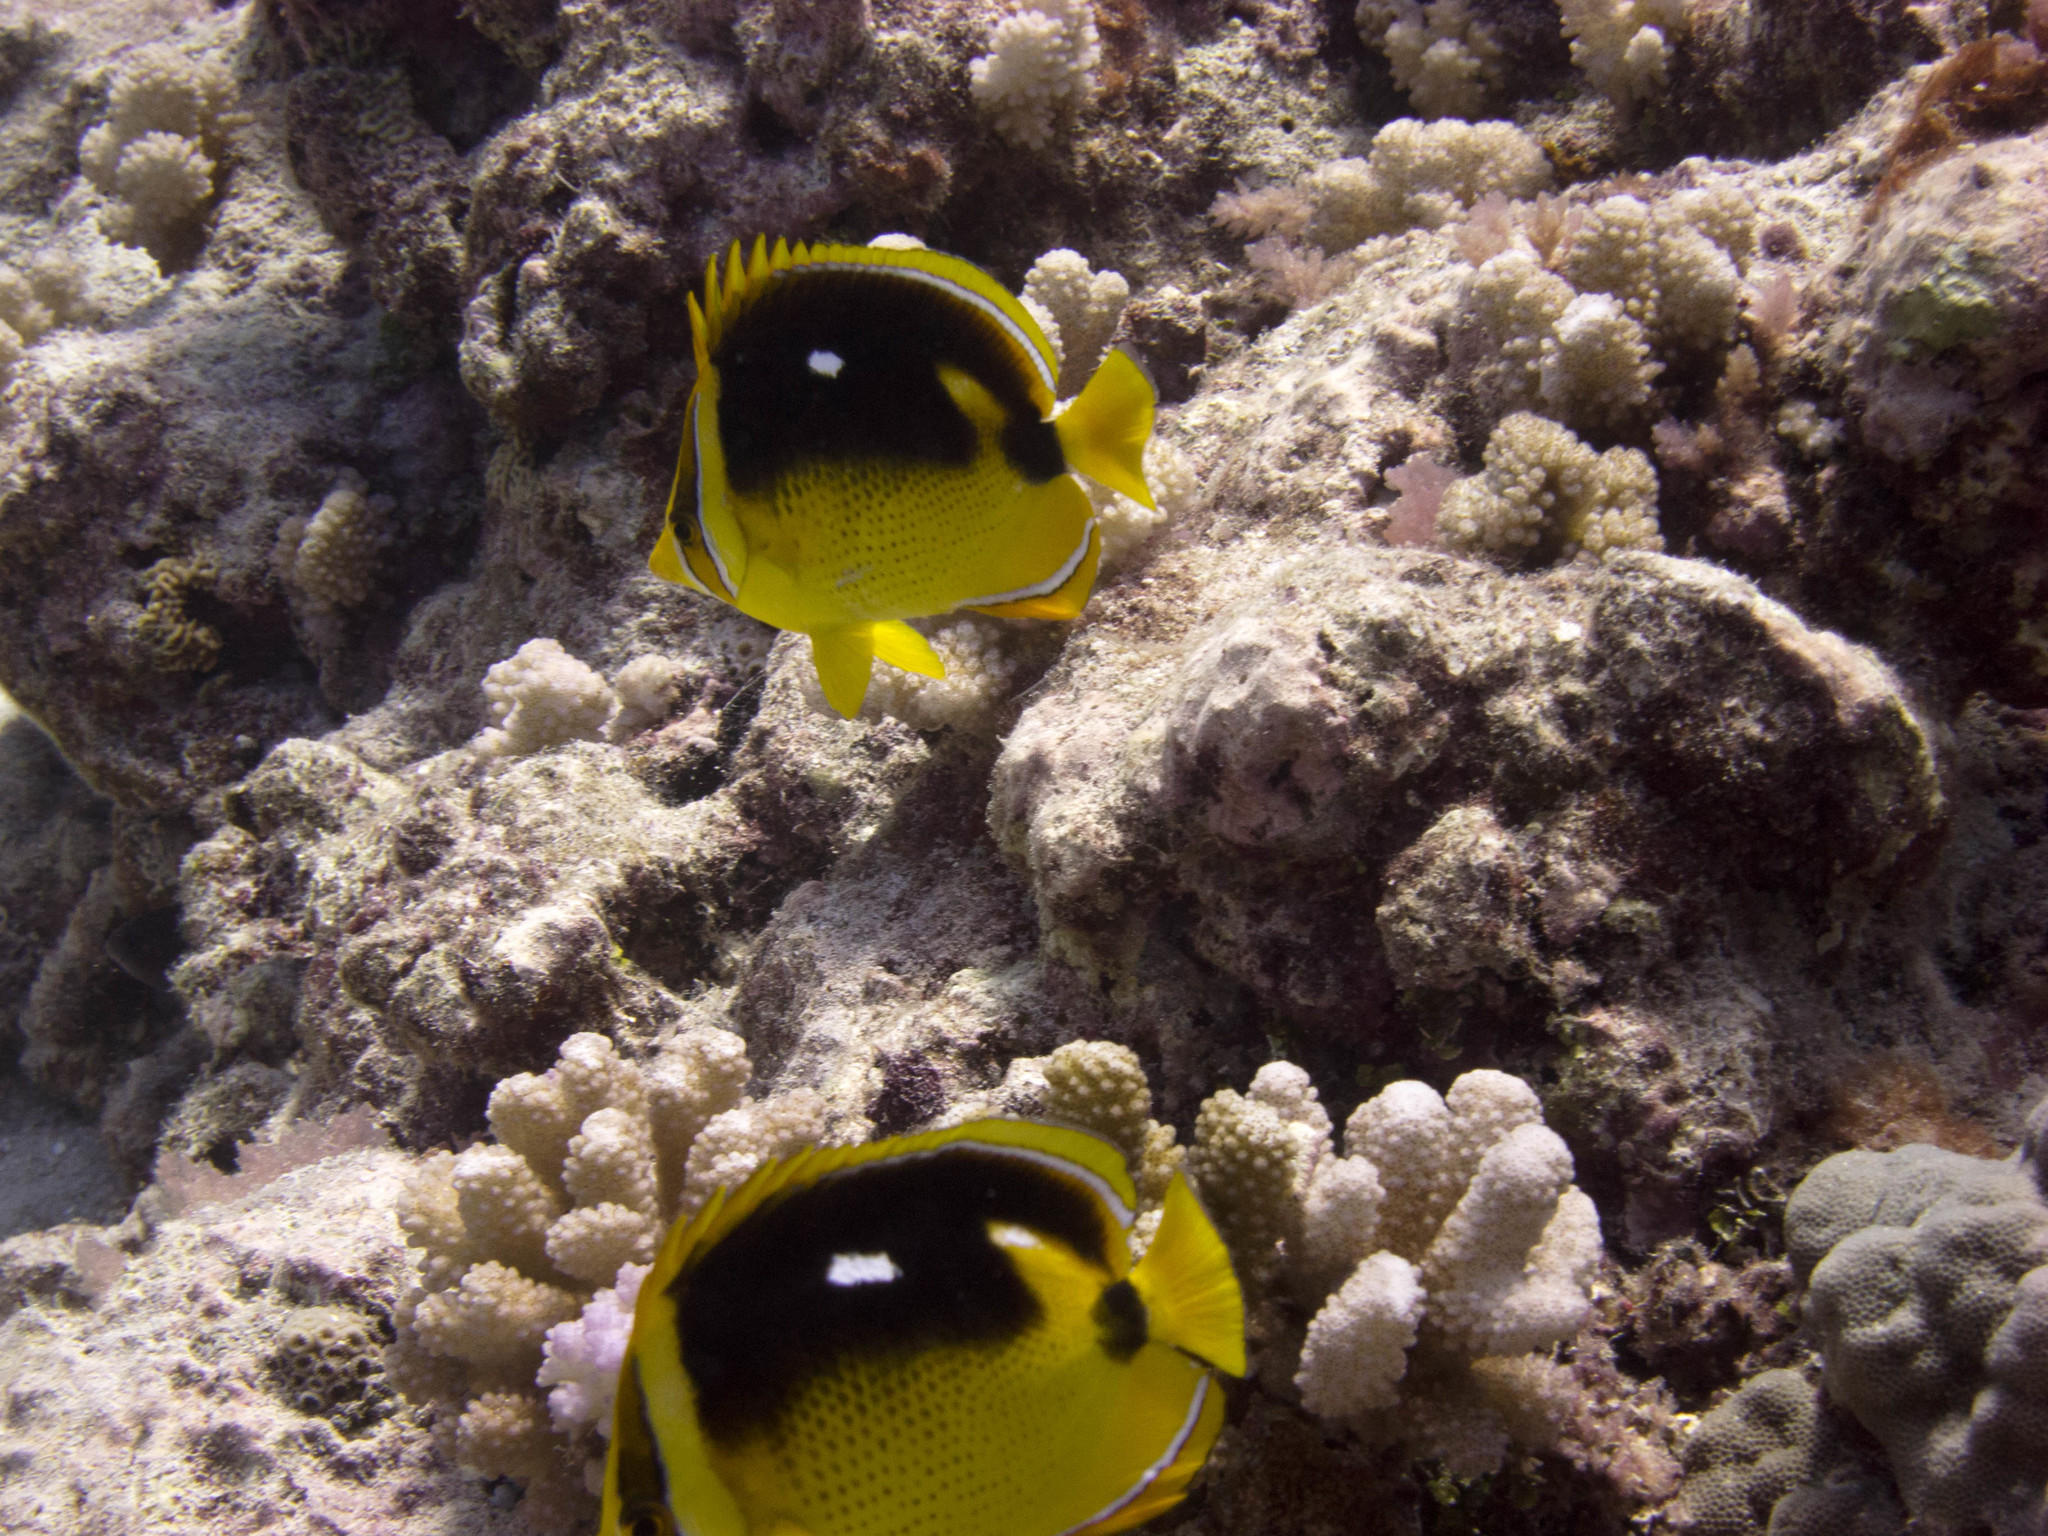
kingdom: Animalia
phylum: Chordata
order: Perciformes
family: Chaetodontidae
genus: Chaetodon
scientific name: Chaetodon quadrimaculatus
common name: Fourspot butterflyfish
